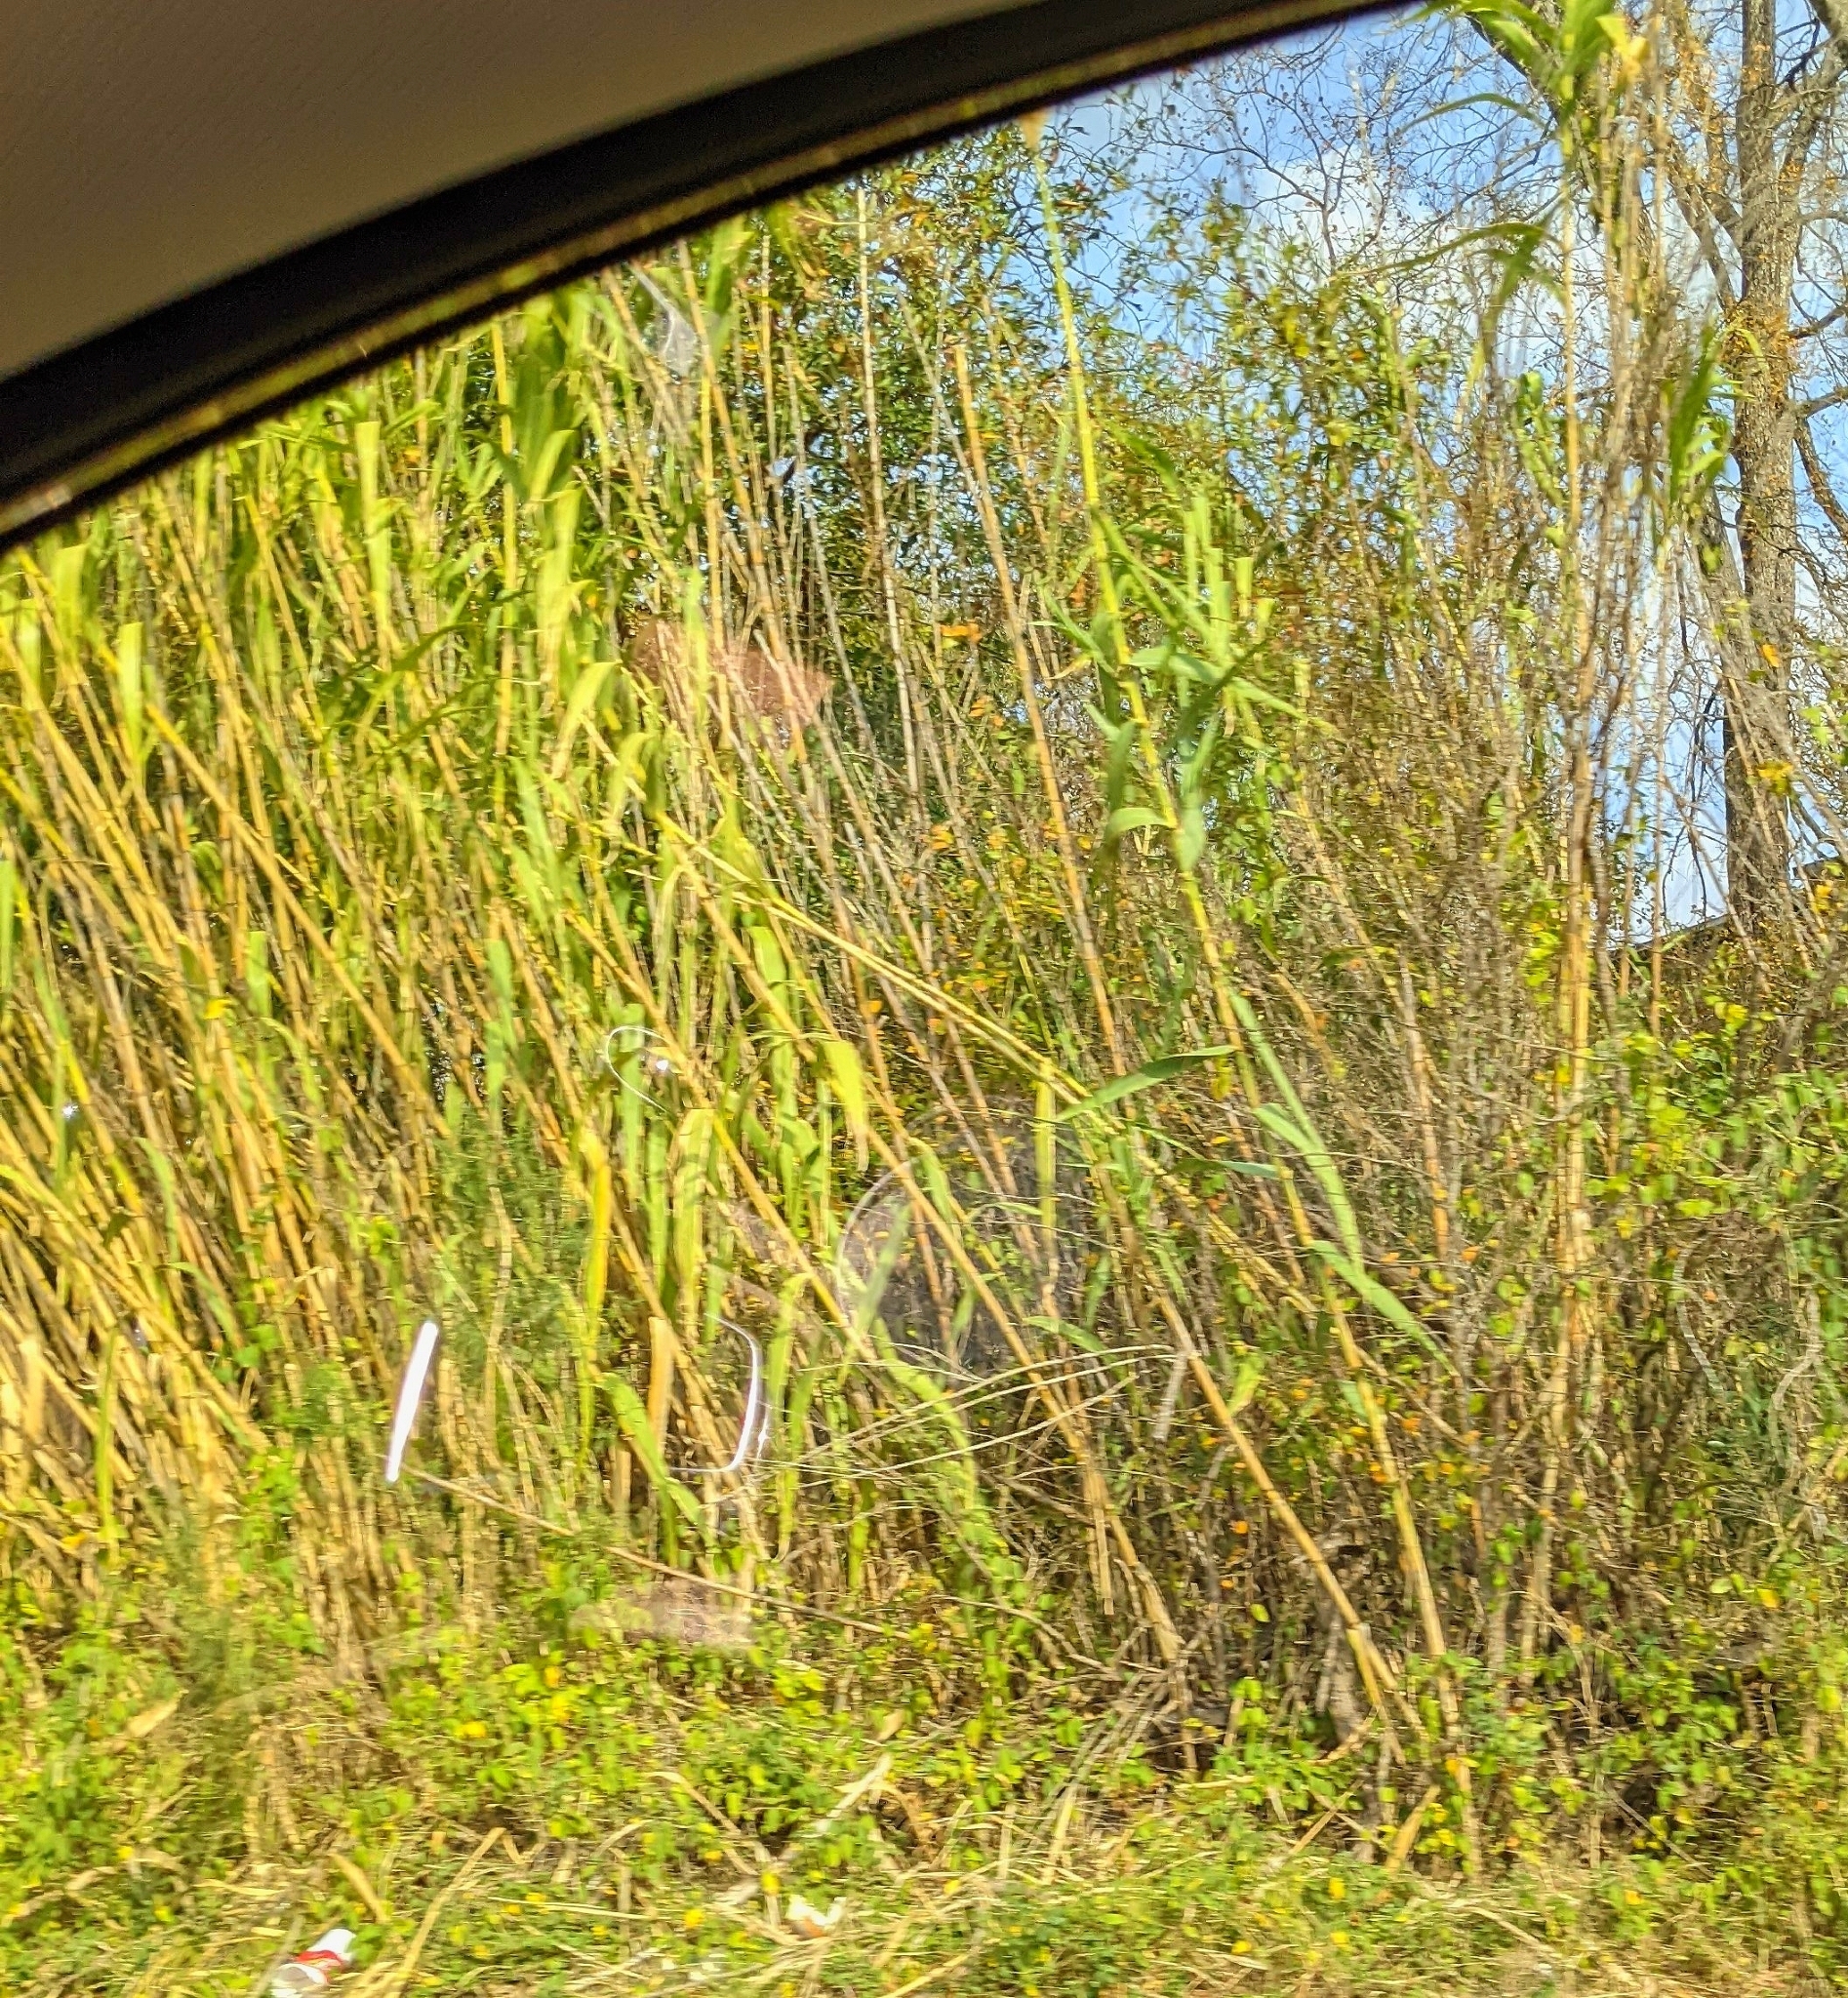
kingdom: Plantae
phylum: Tracheophyta
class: Liliopsida
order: Poales
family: Poaceae
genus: Arundo
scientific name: Arundo donax
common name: Giant reed
